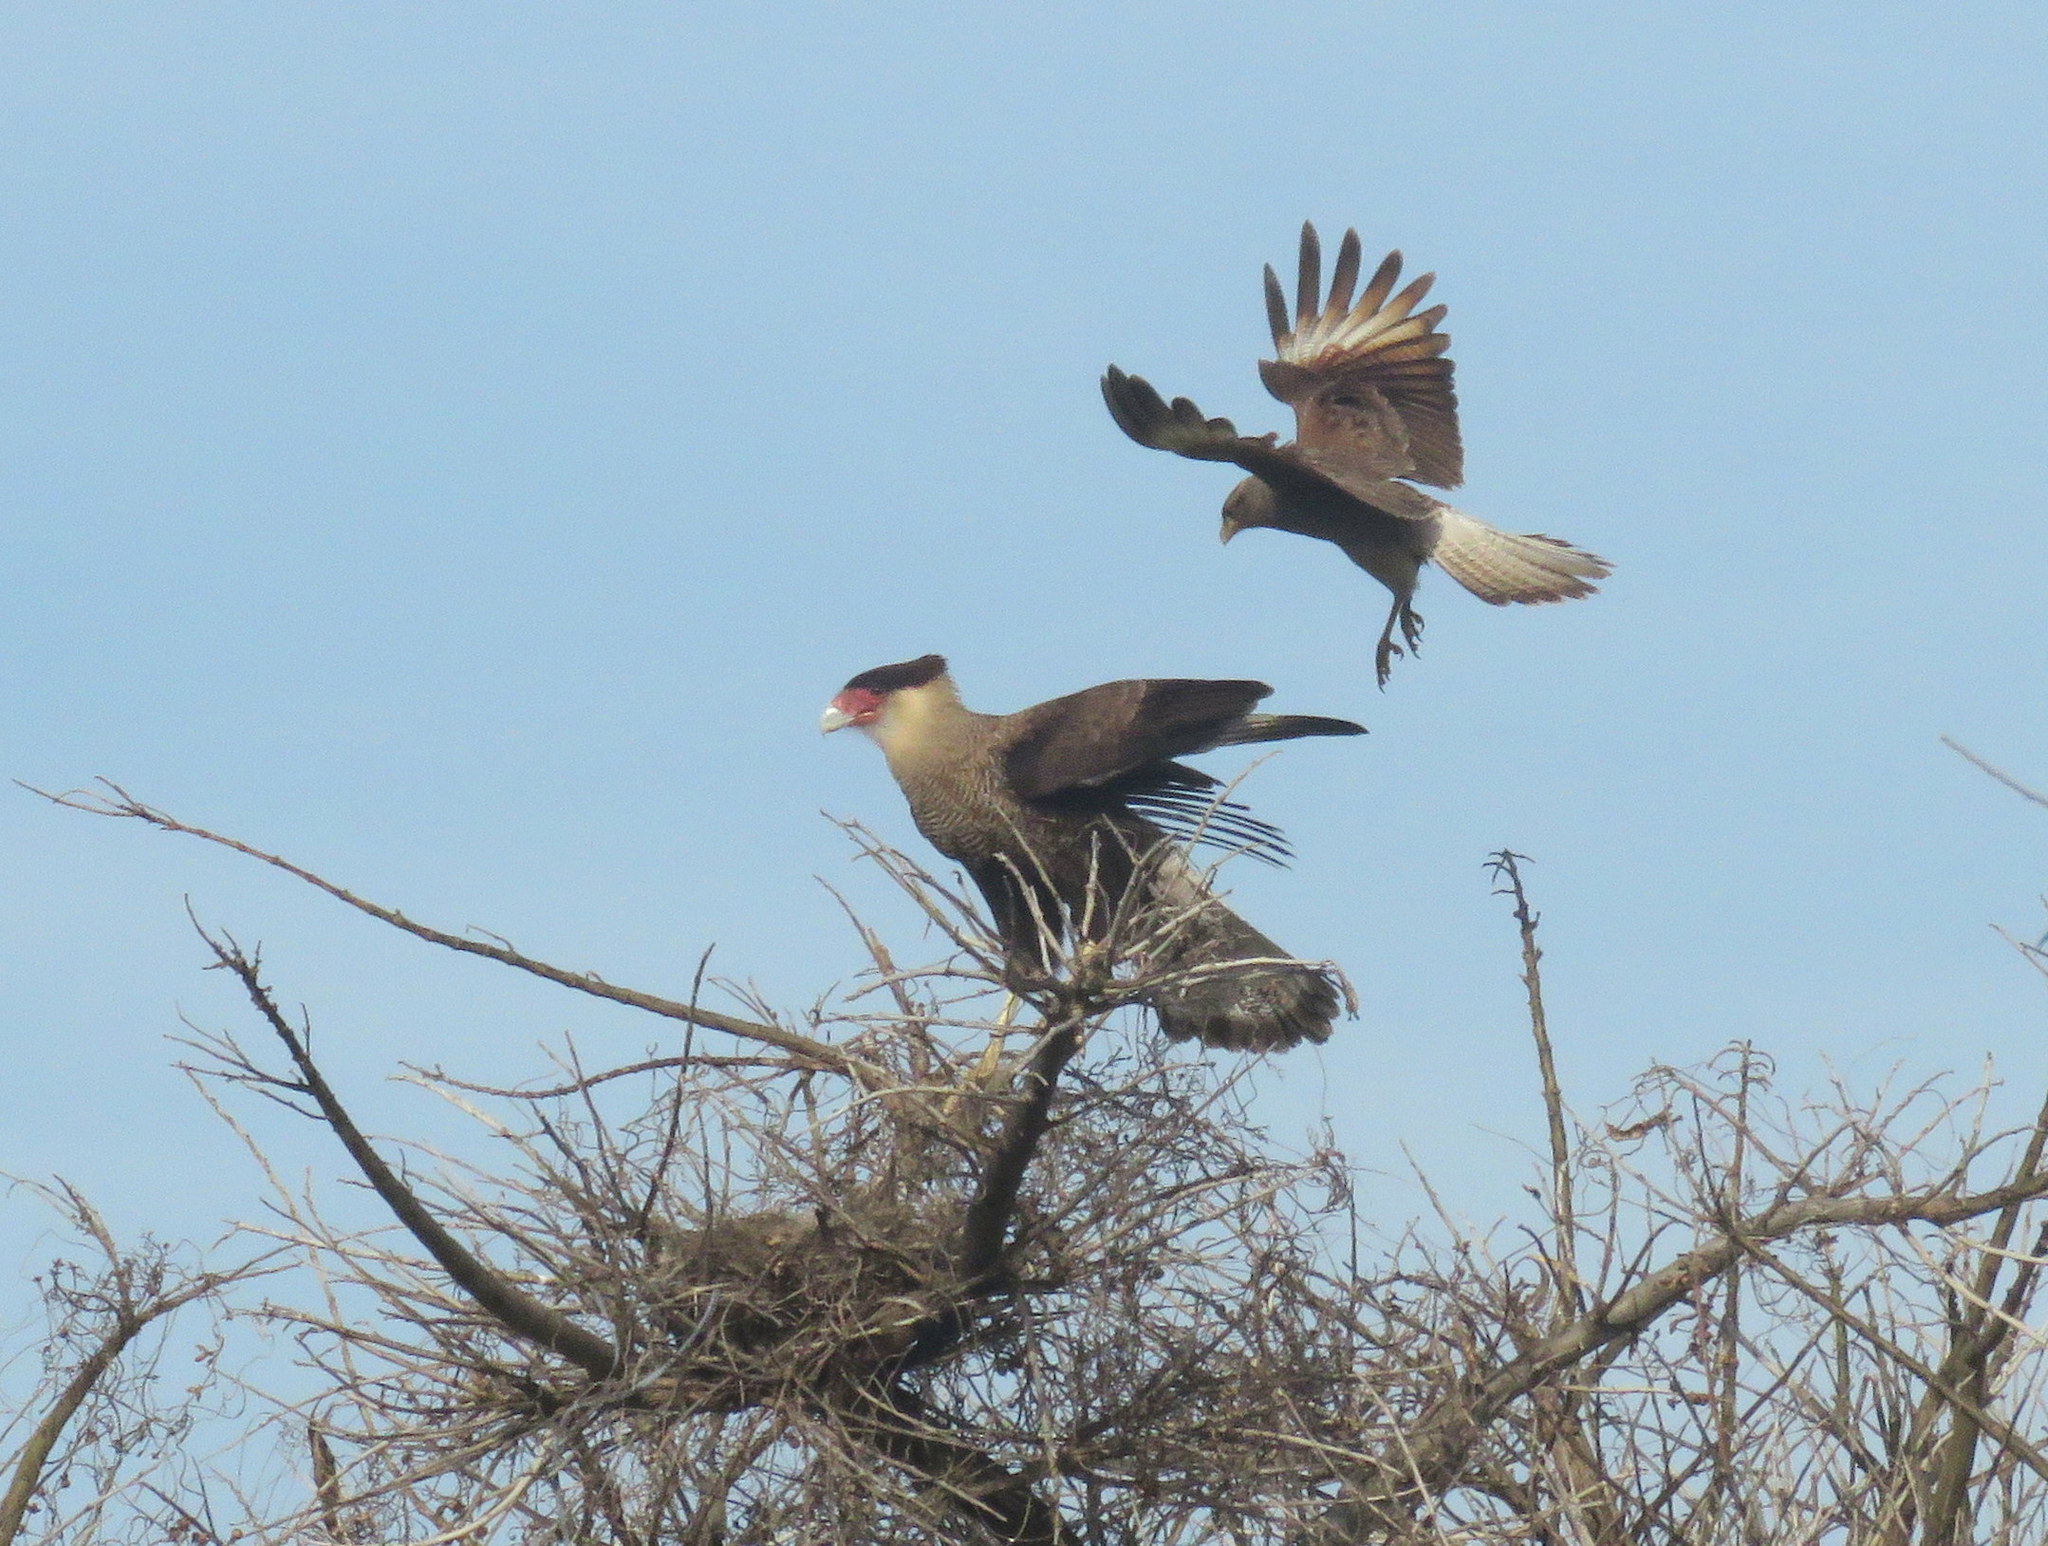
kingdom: Animalia
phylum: Chordata
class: Aves
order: Falconiformes
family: Falconidae
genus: Caracara
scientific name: Caracara plancus
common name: Southern caracara
